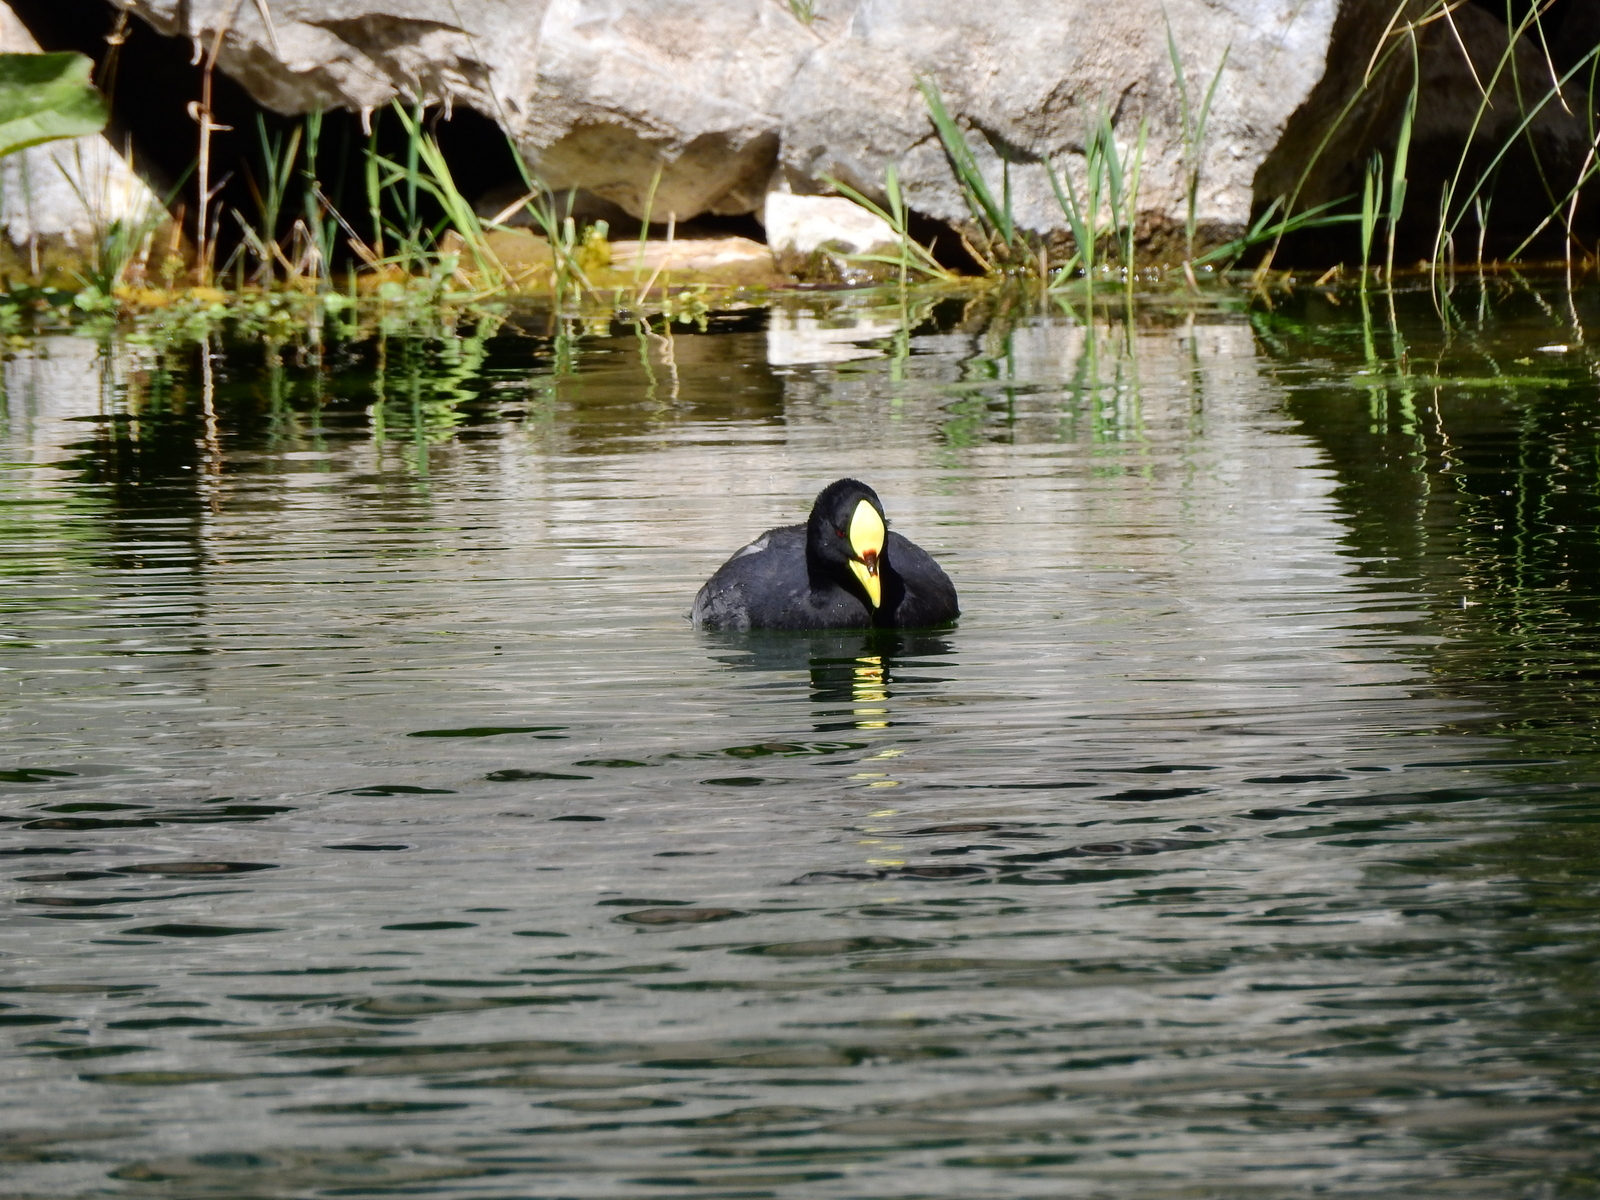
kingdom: Animalia
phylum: Chordata
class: Aves
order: Gruiformes
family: Rallidae
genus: Fulica
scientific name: Fulica armillata
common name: Red-gartered coot
